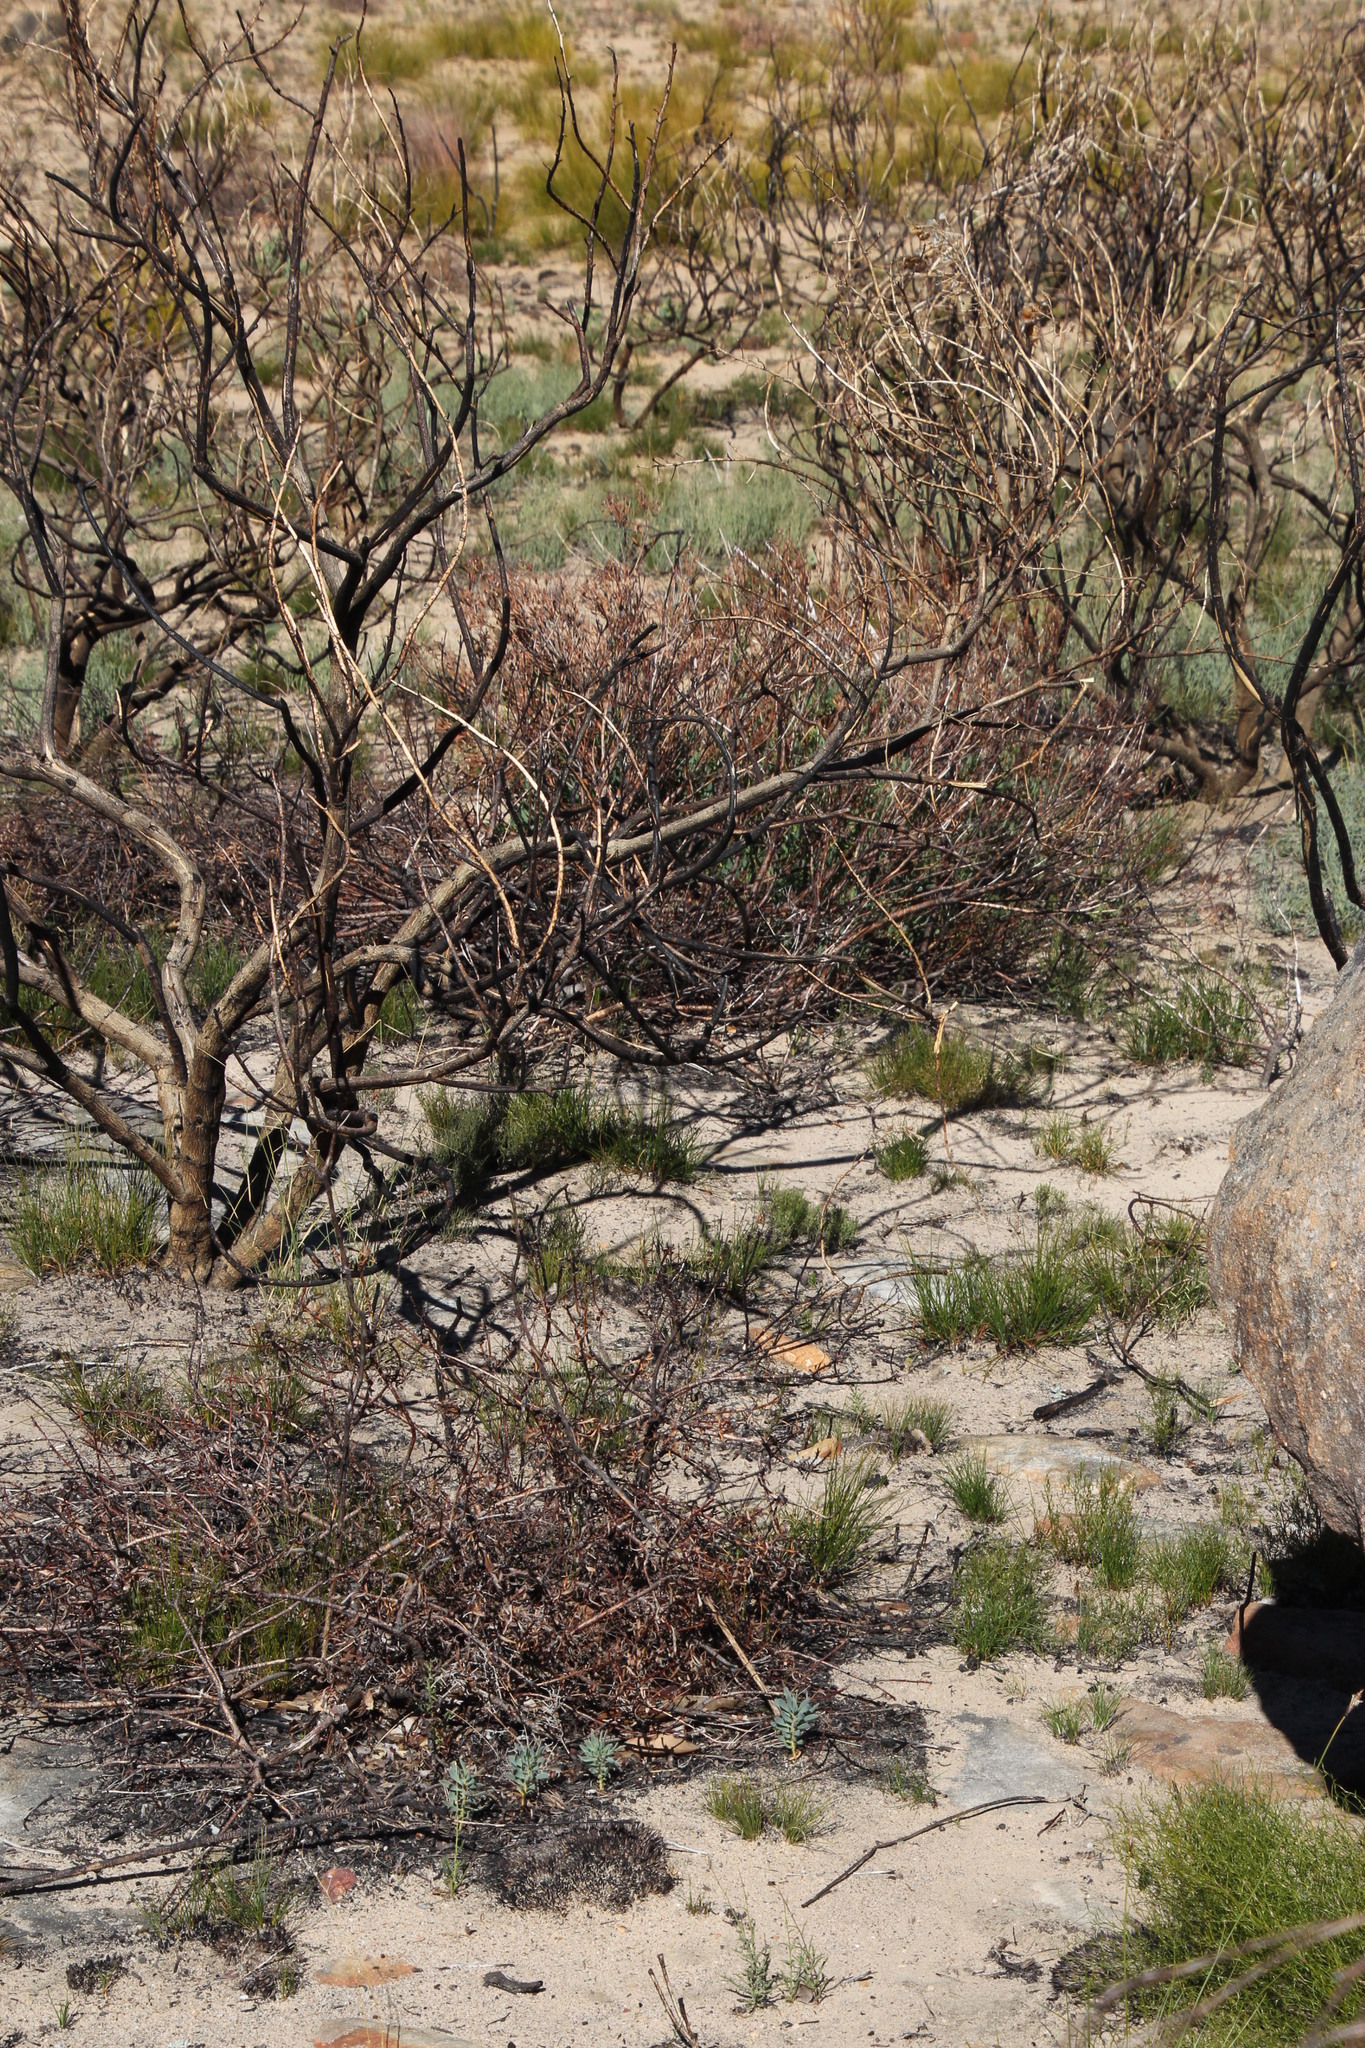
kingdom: Plantae
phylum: Tracheophyta
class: Magnoliopsida
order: Proteales
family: Proteaceae
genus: Leucadendron
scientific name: Leucadendron glaberrimum
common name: Common oily conebush
